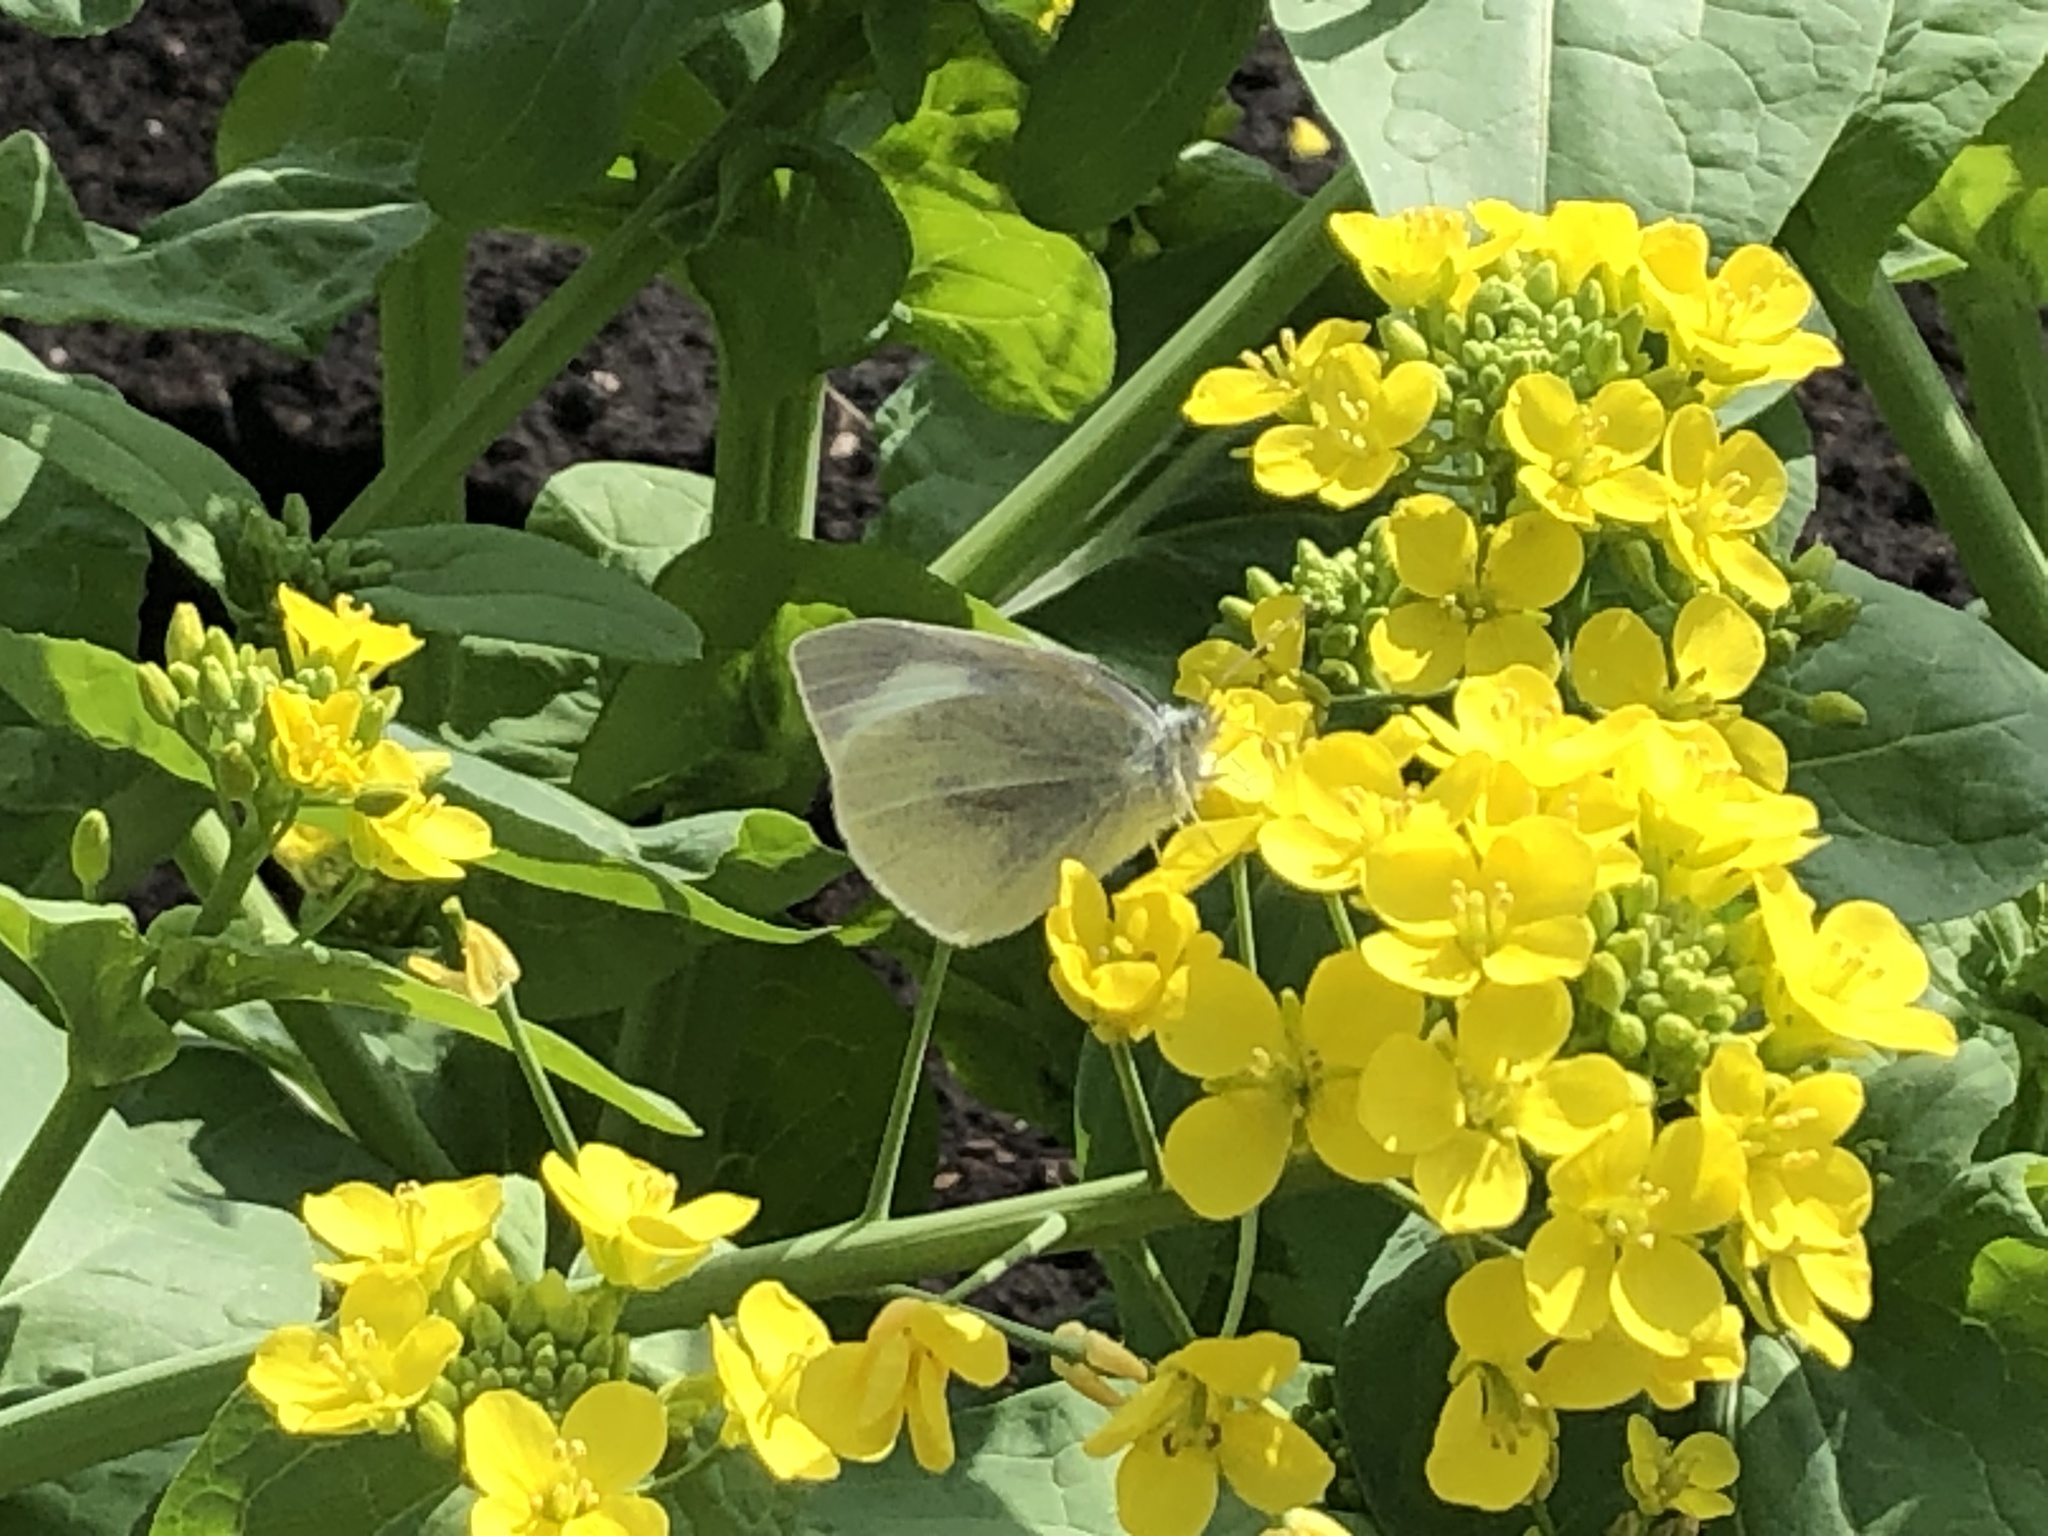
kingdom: Animalia
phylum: Arthropoda
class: Insecta
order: Lepidoptera
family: Pieridae
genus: Pieris
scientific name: Pieris rapae
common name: Small white
